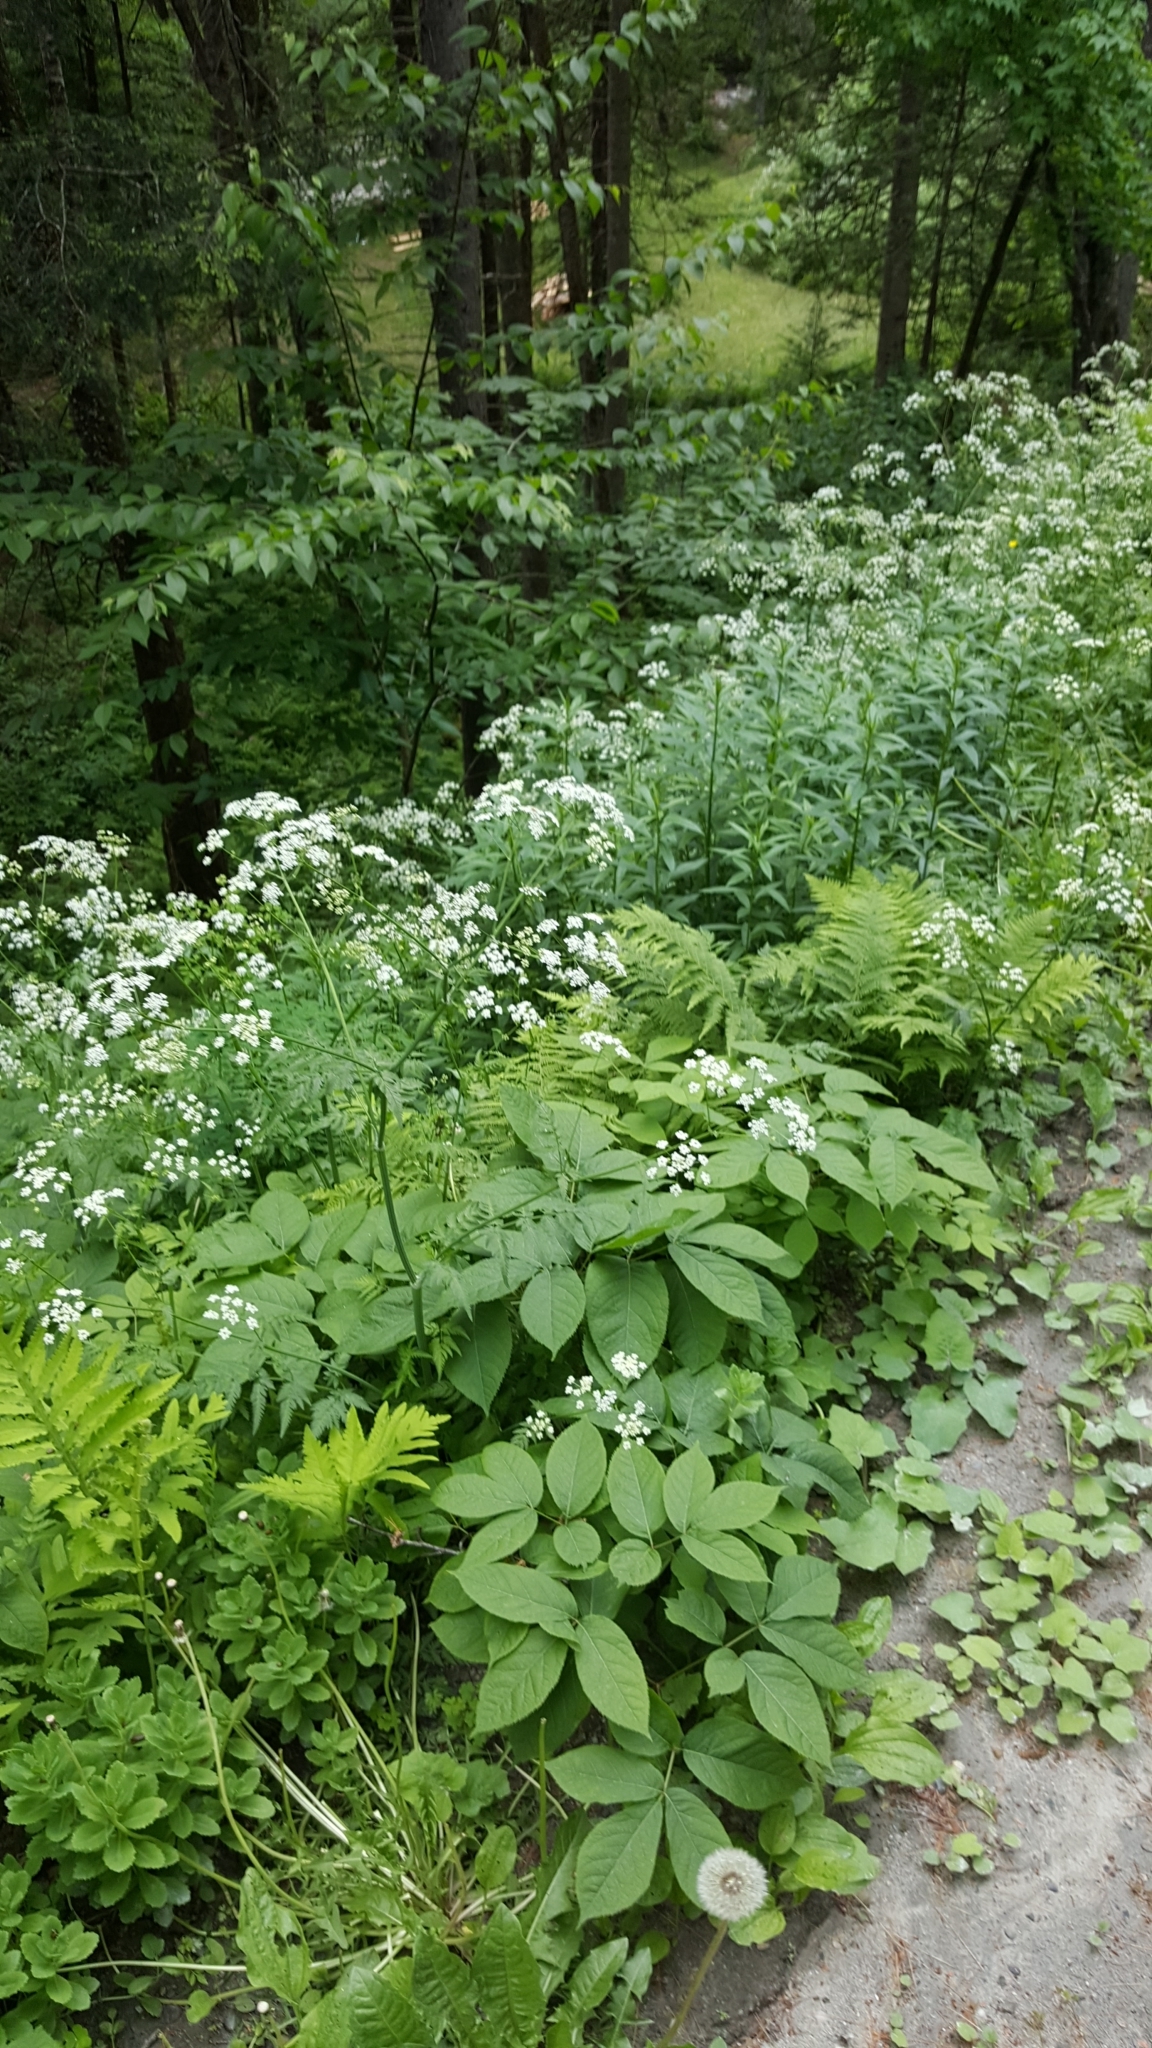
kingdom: Plantae
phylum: Tracheophyta
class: Magnoliopsida
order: Apiales
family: Apiaceae
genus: Anthriscus
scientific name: Anthriscus sylvestris
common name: Cow parsley
